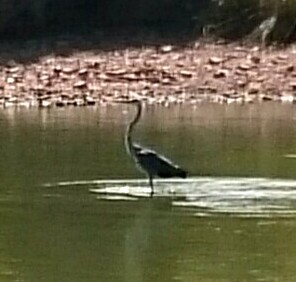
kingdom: Animalia
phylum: Chordata
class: Aves
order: Pelecaniformes
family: Ardeidae
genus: Ardea
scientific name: Ardea cinerea
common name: Grey heron
